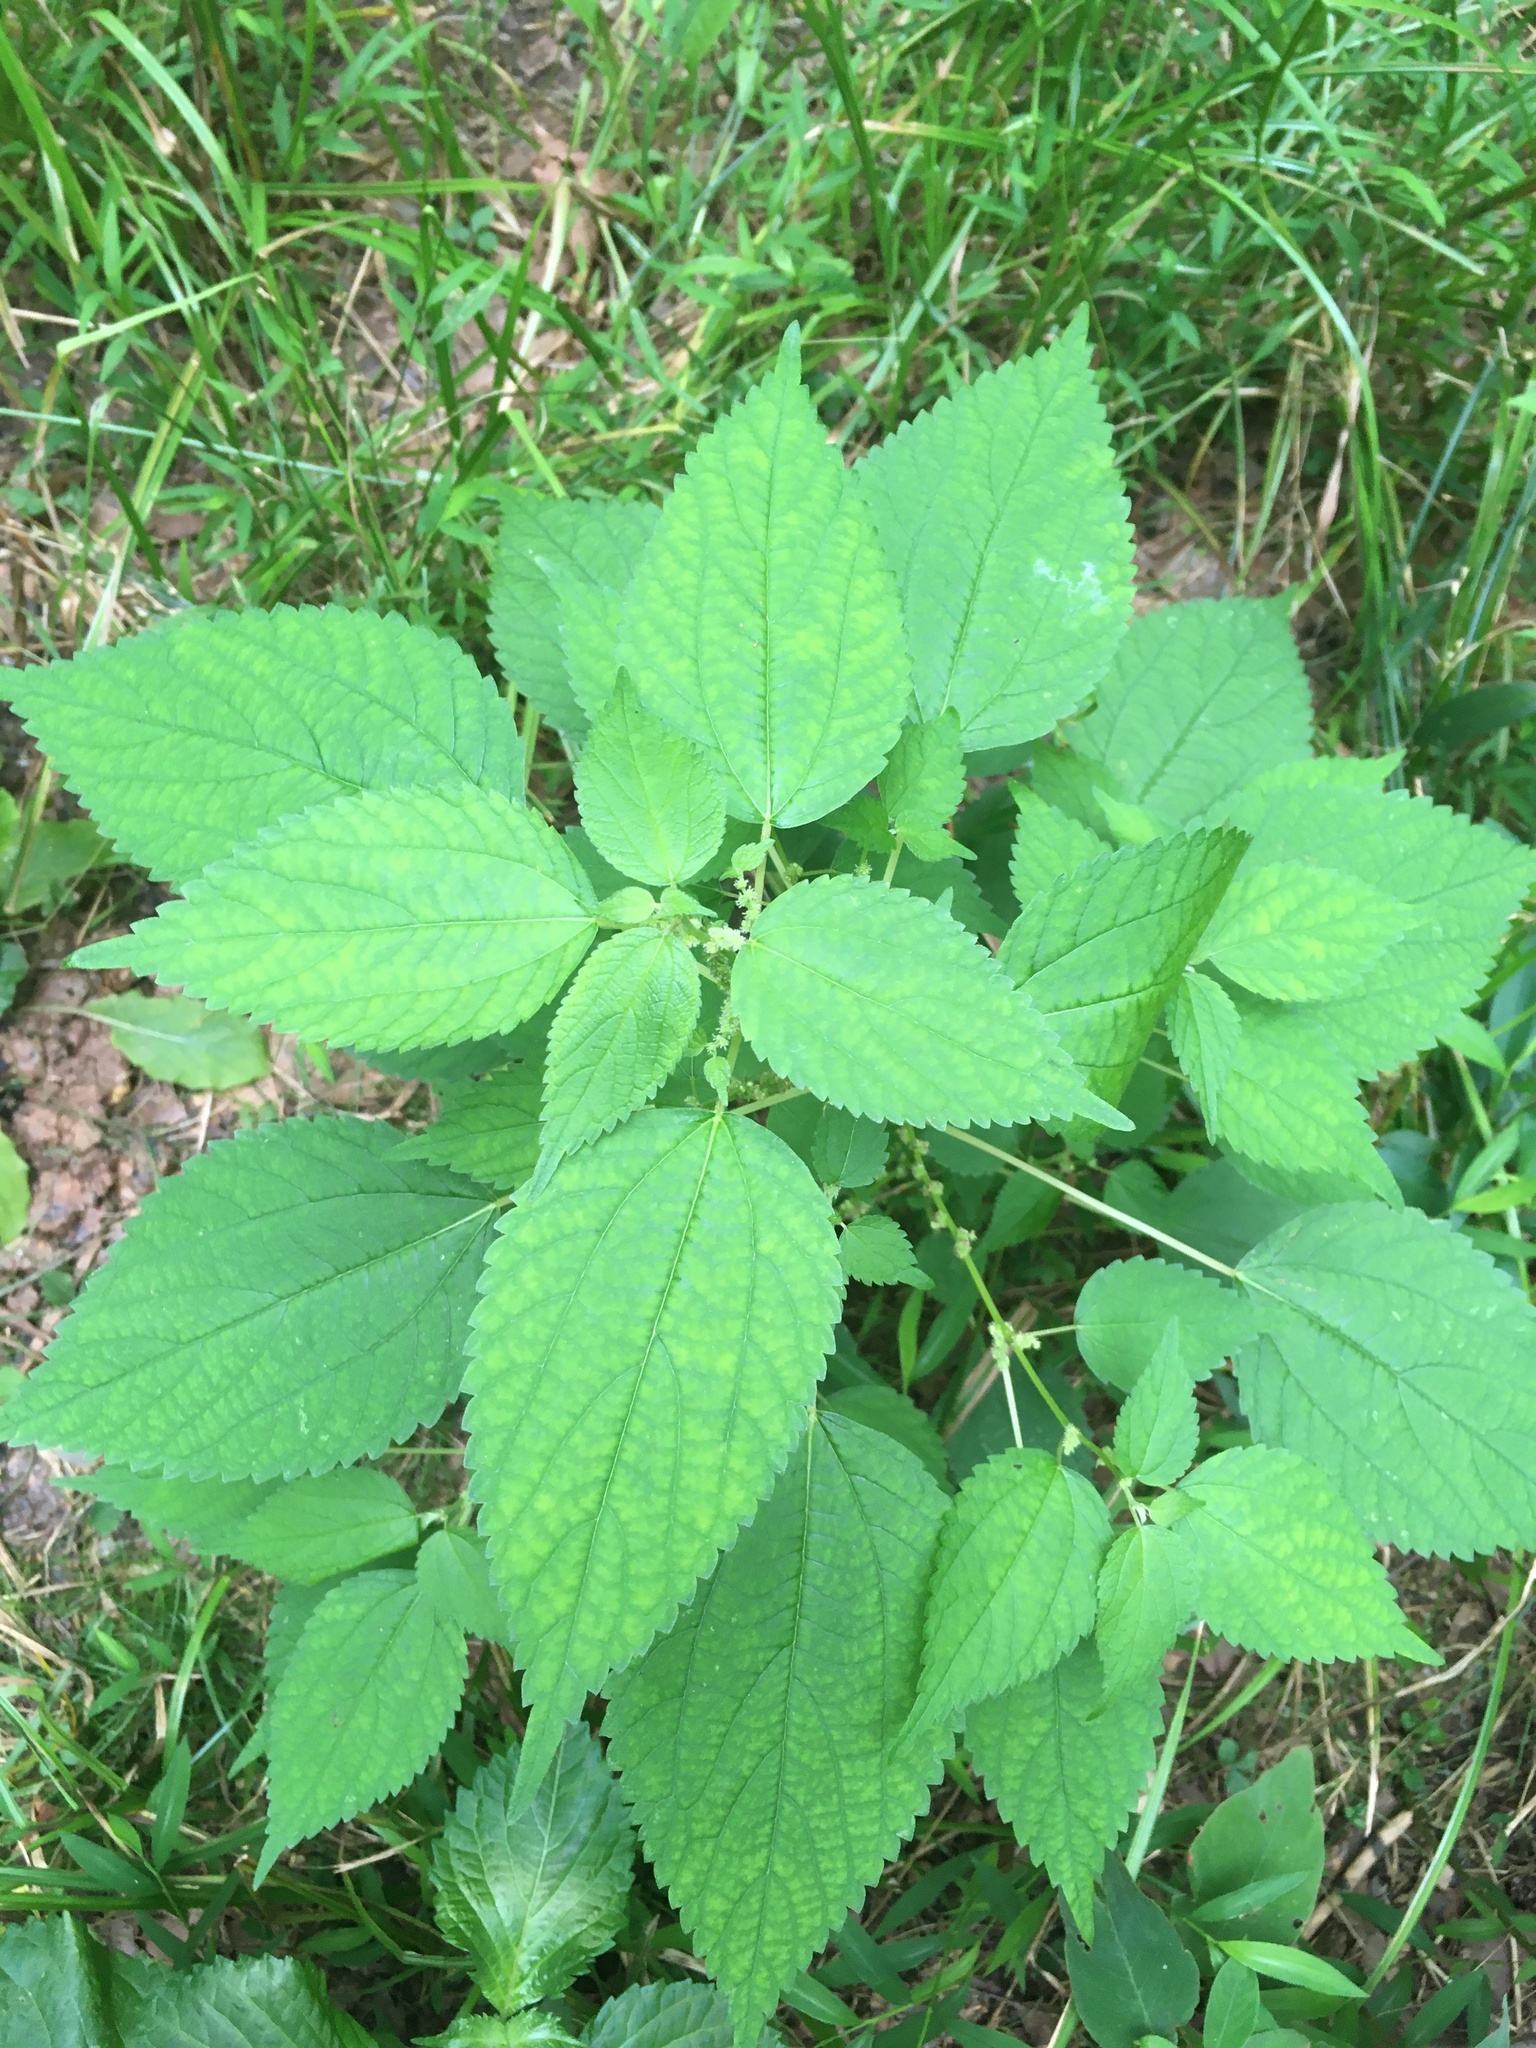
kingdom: Plantae
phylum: Tracheophyta
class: Magnoliopsida
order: Rosales
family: Urticaceae
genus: Boehmeria
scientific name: Boehmeria cylindrica
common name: Bog-hemp
